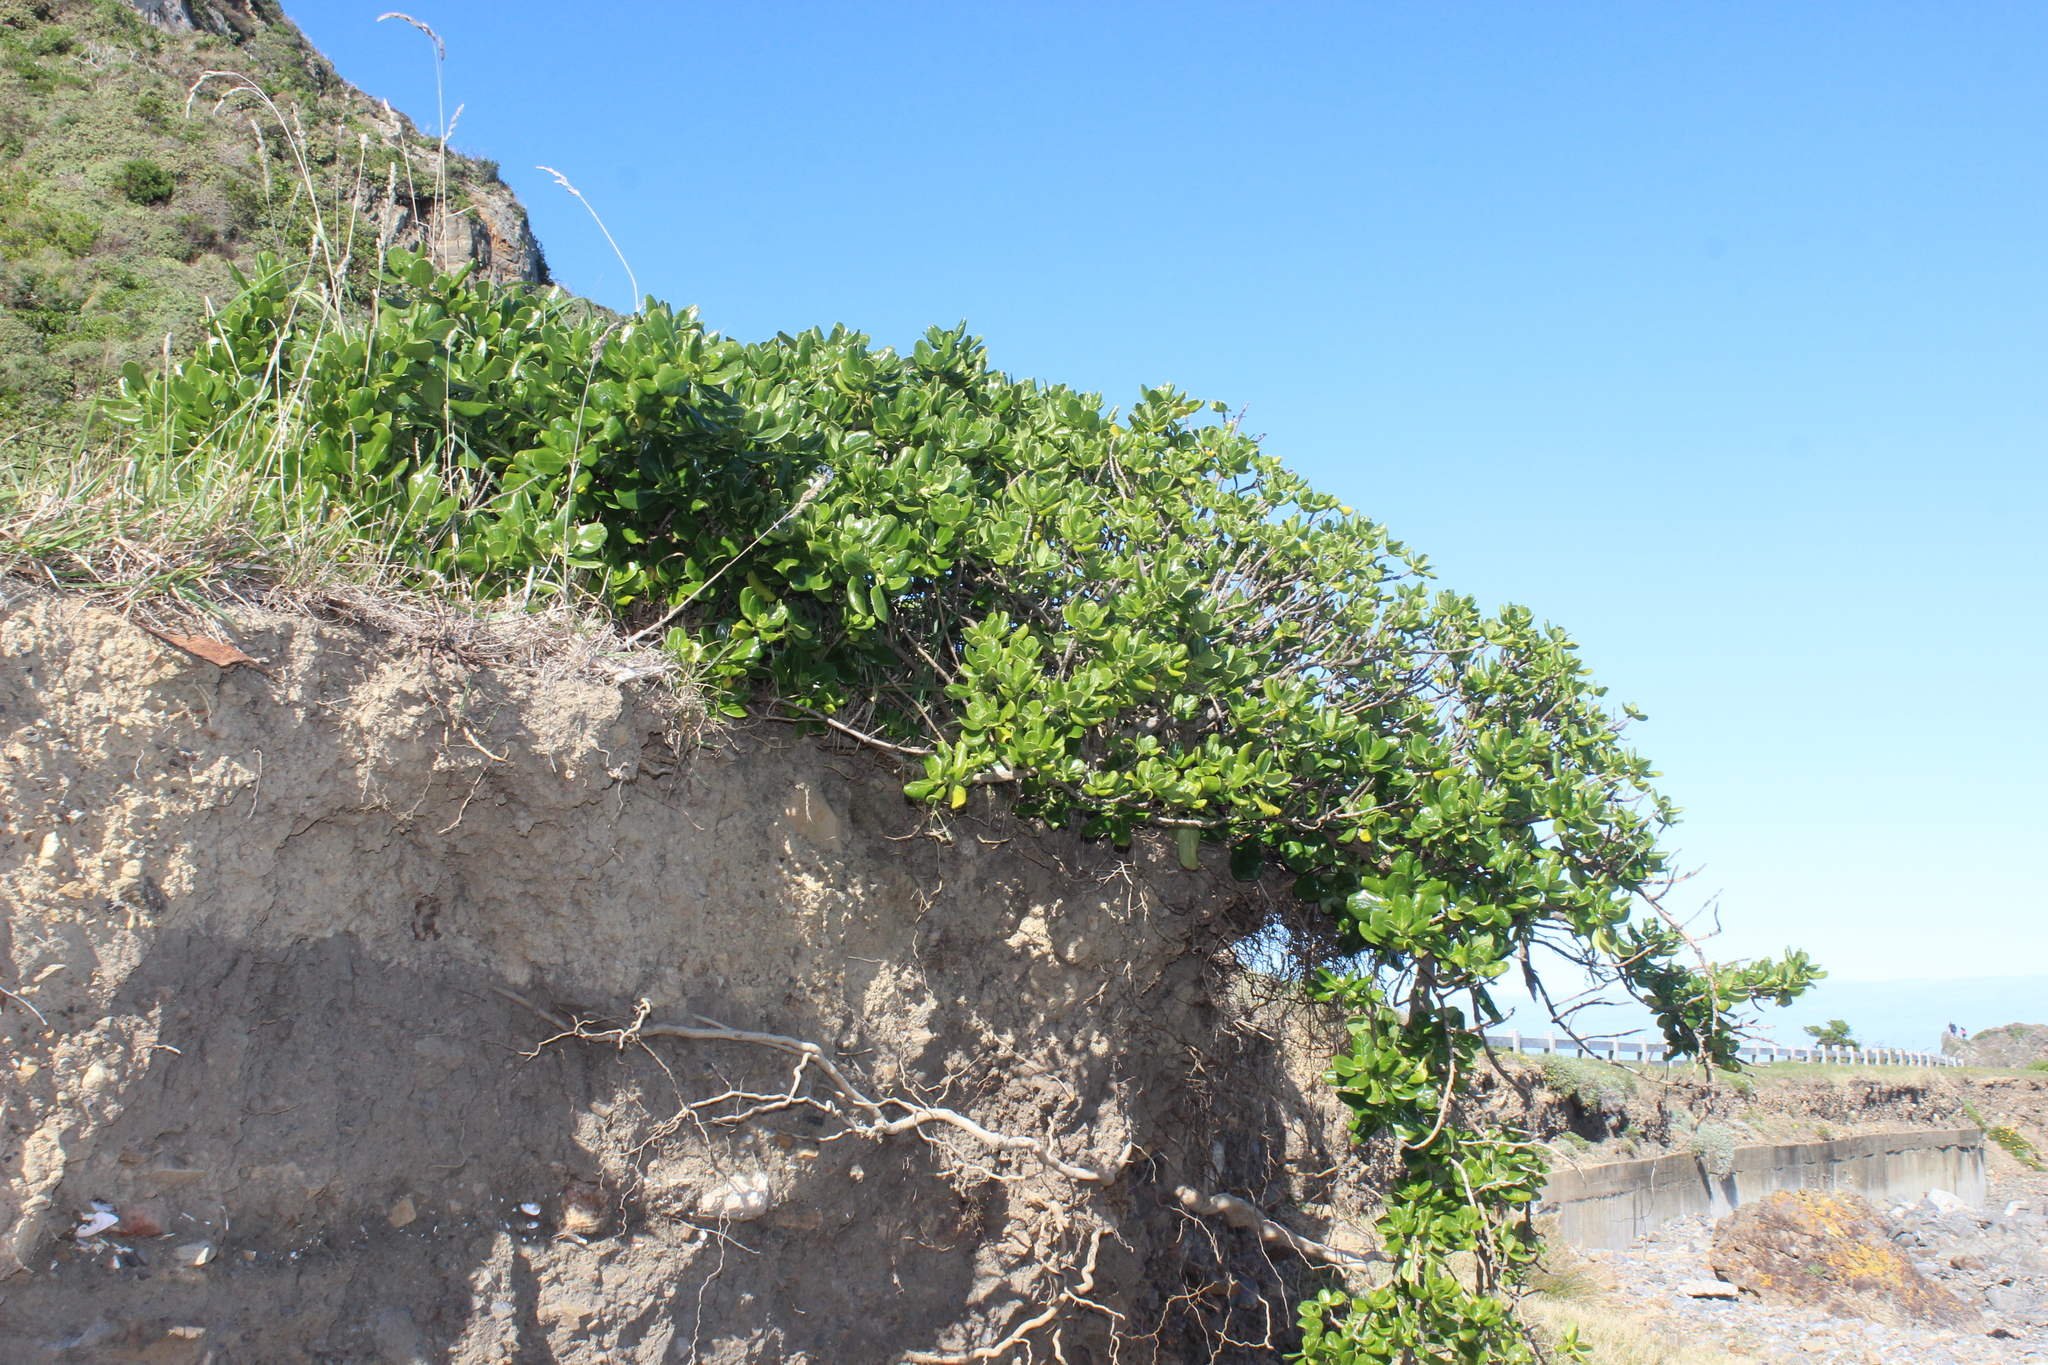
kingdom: Plantae
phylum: Tracheophyta
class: Magnoliopsida
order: Gentianales
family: Rubiaceae
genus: Coprosma
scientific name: Coprosma repens
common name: Tree bedstraw
